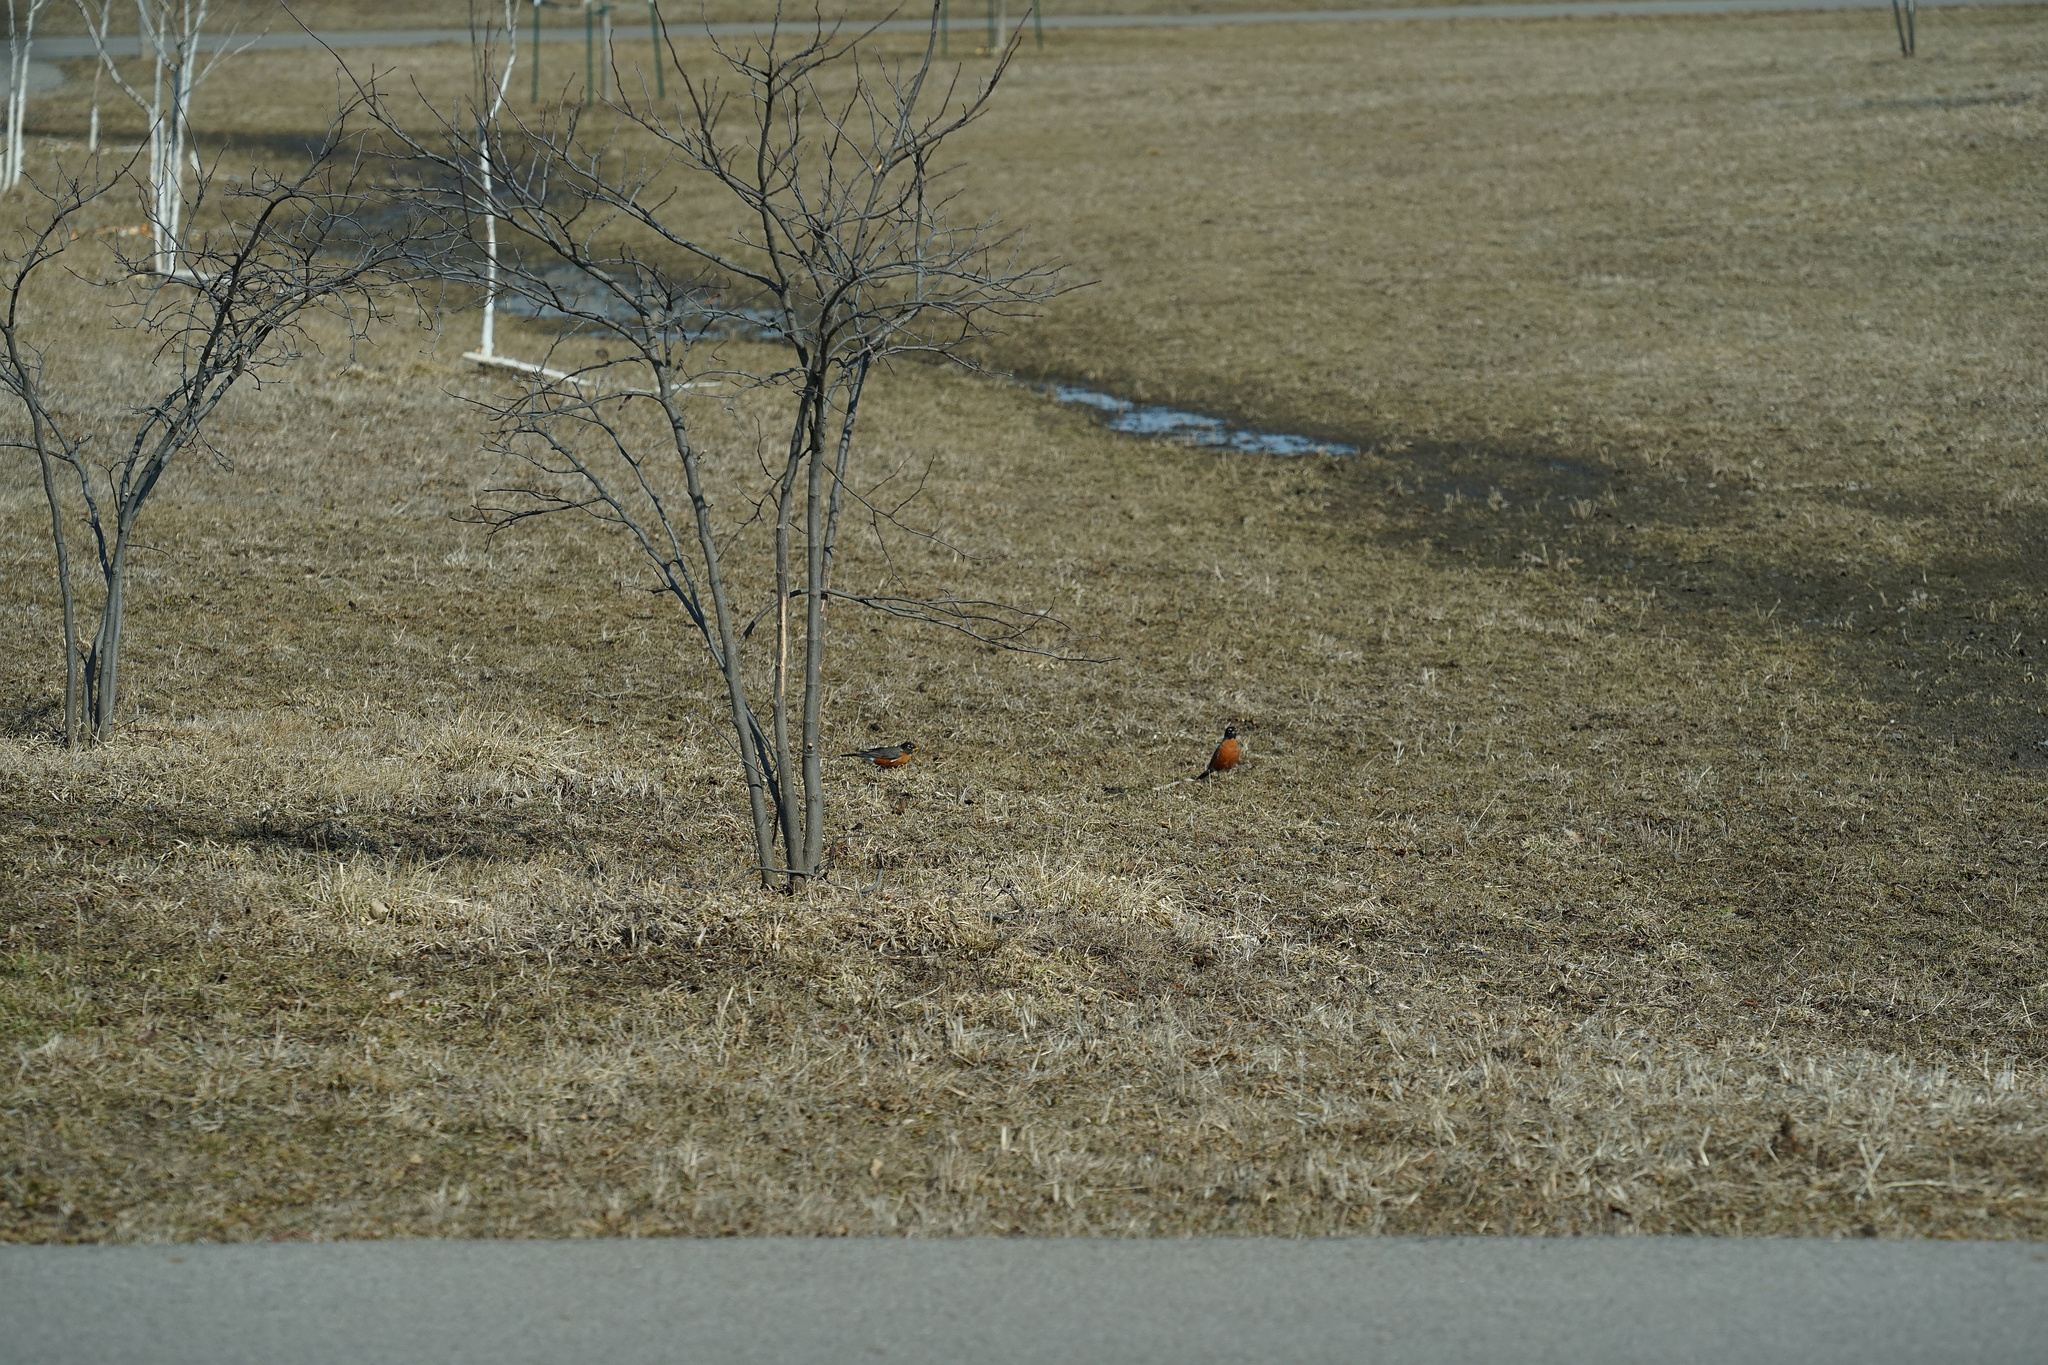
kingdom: Animalia
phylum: Chordata
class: Aves
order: Passeriformes
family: Turdidae
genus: Turdus
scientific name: Turdus migratorius
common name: American robin
